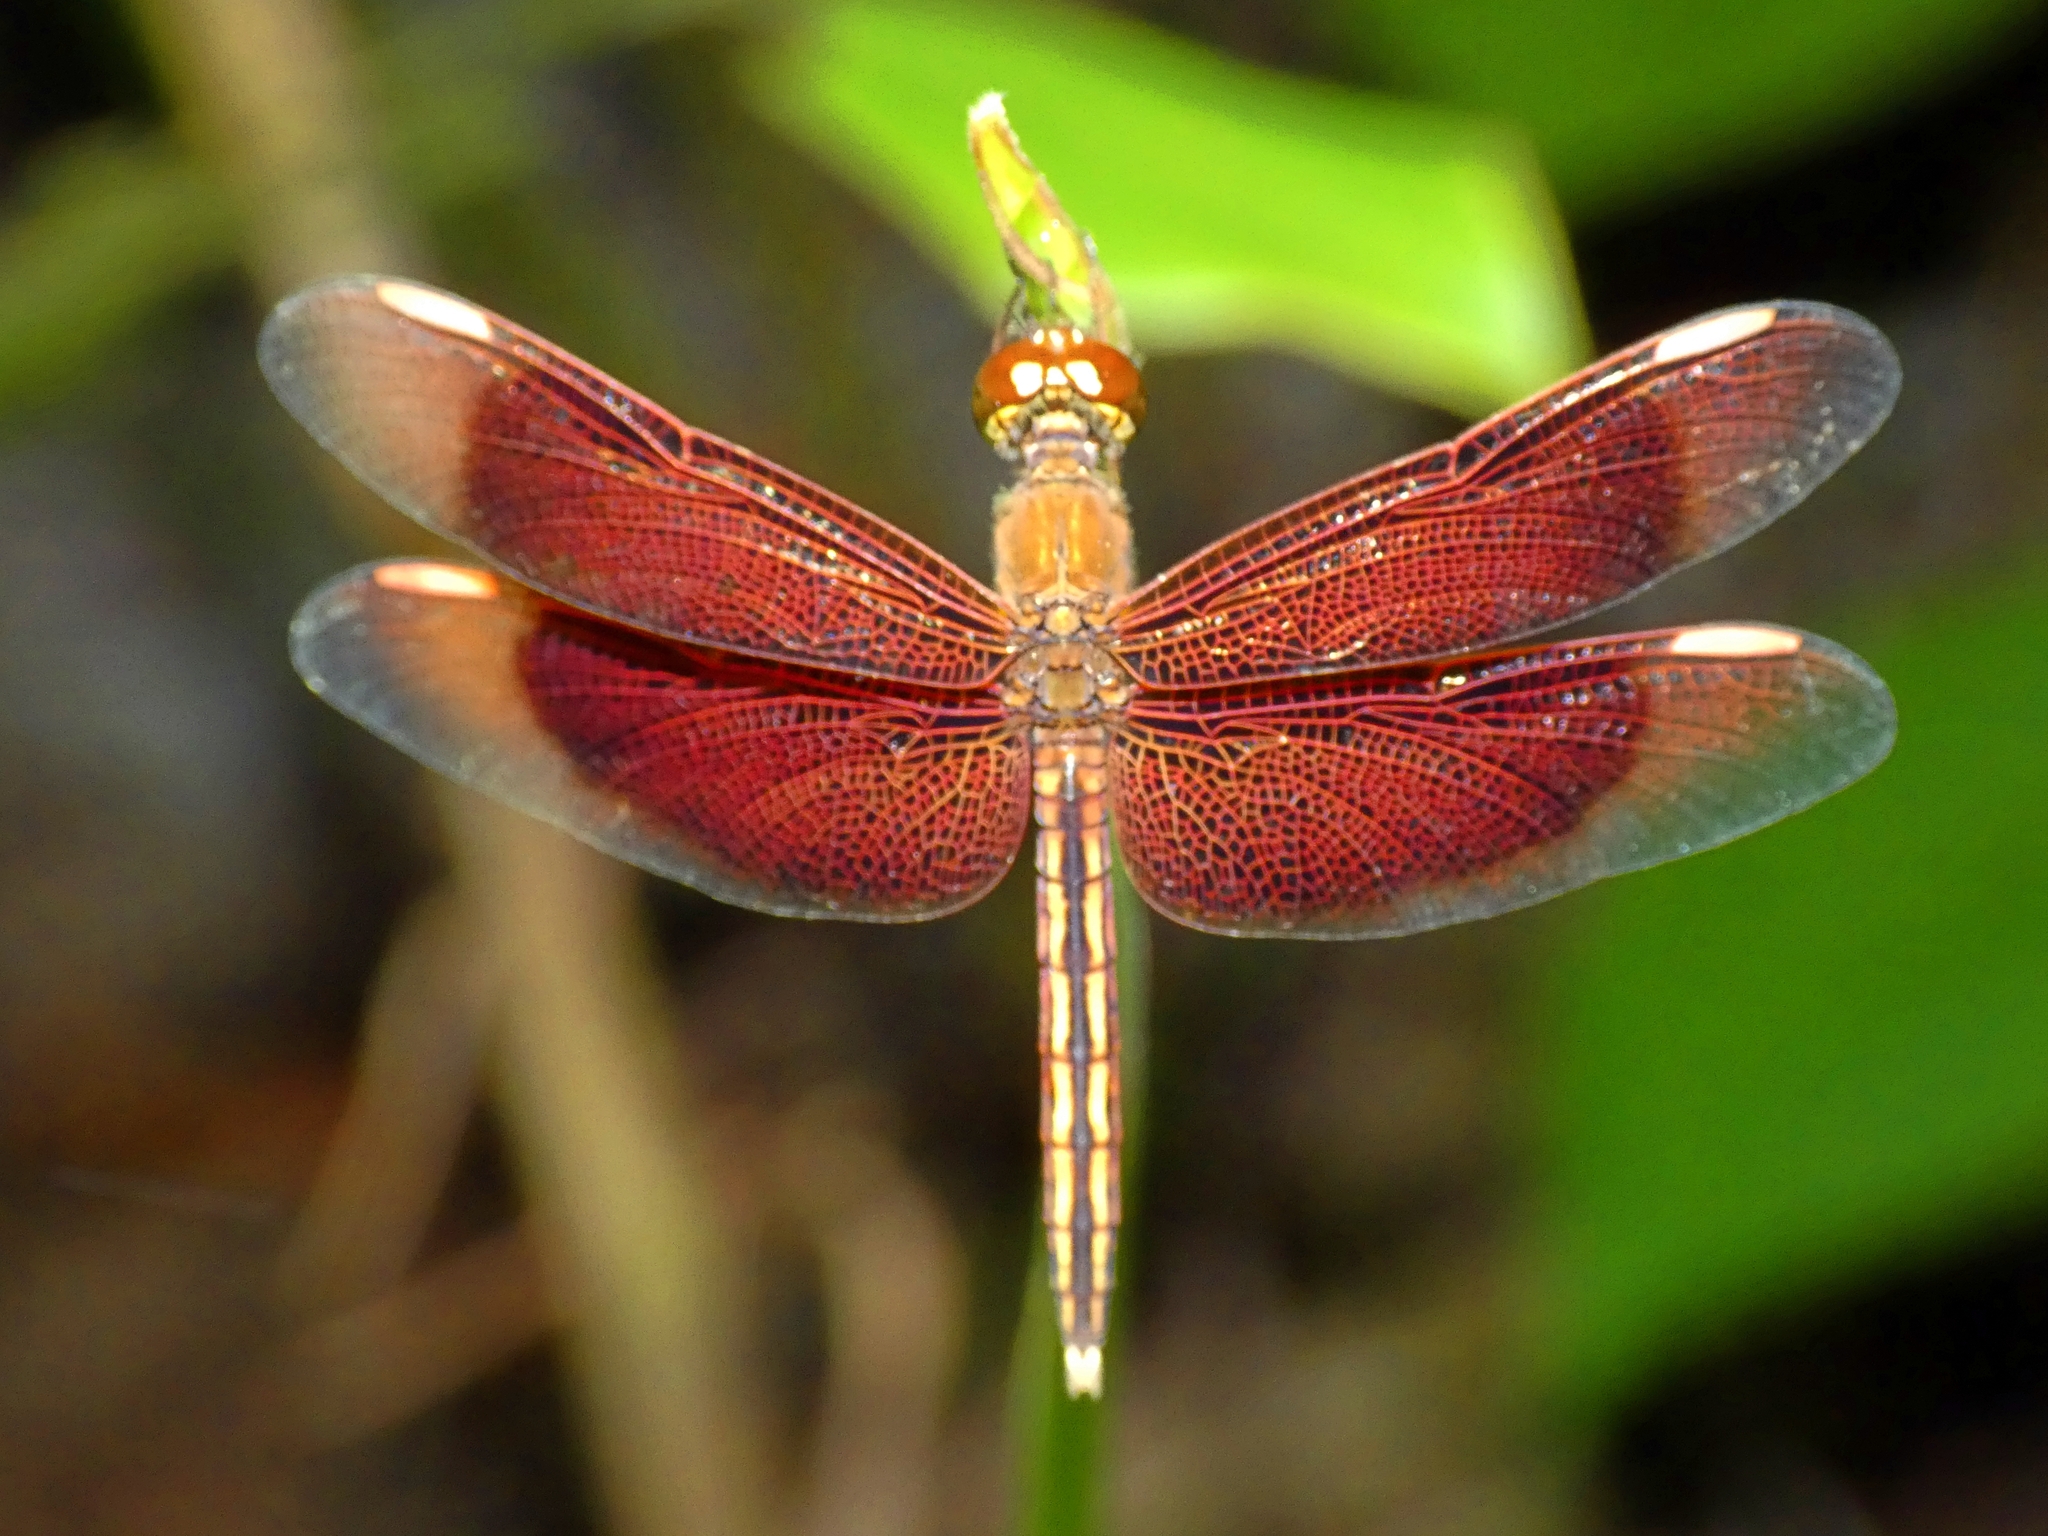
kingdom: Animalia
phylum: Arthropoda
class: Insecta
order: Odonata
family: Libellulidae
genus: Neurothemis
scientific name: Neurothemis stigmatizans
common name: Painted grasshawk
